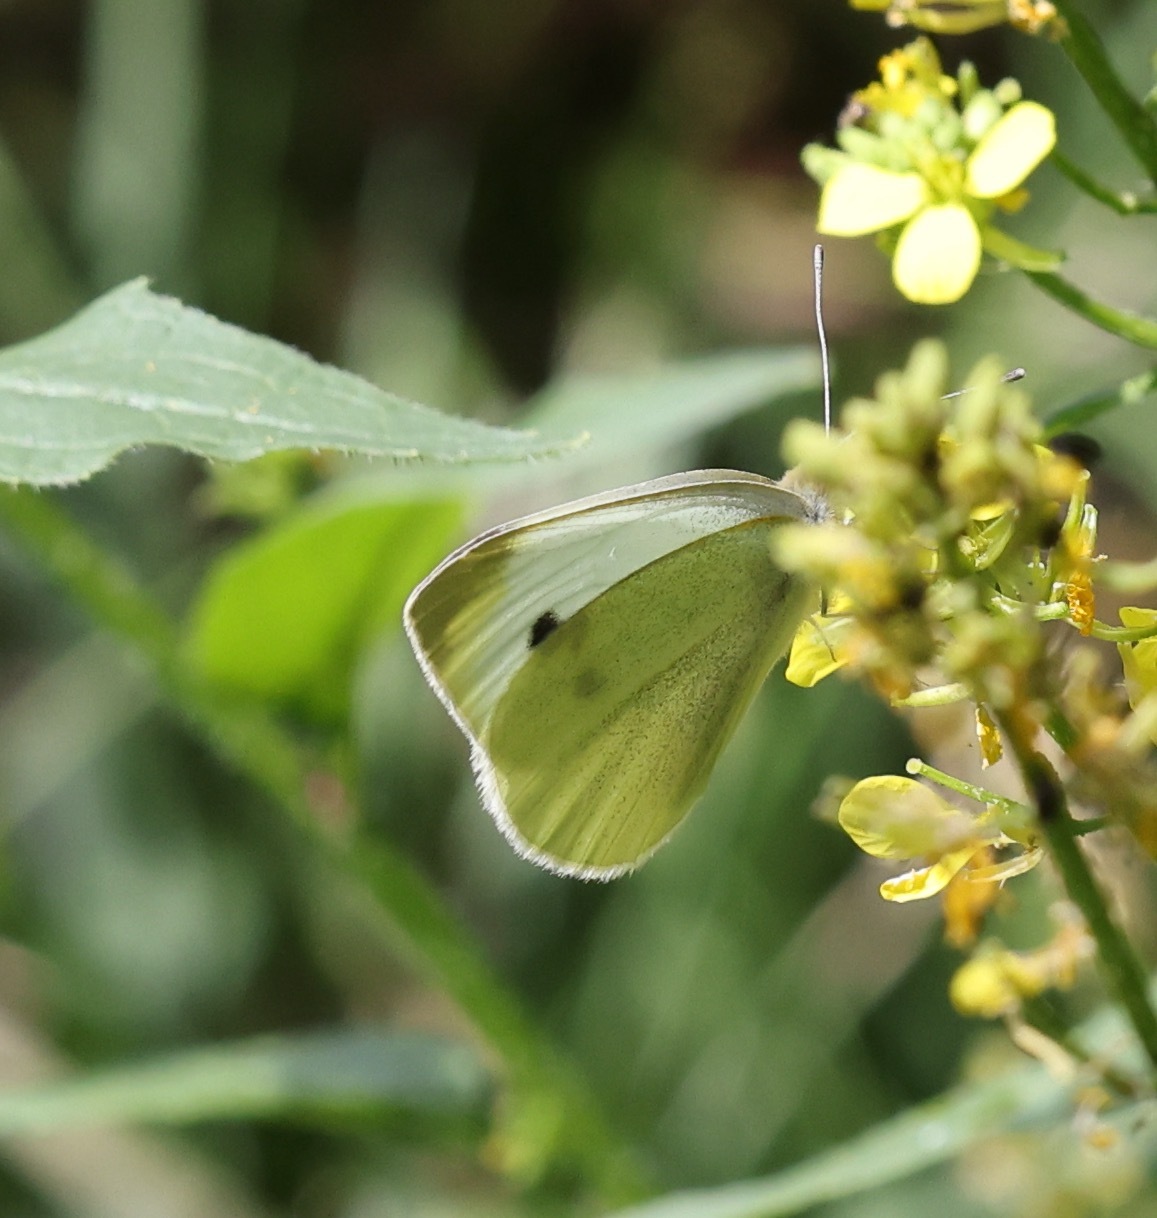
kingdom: Animalia
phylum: Arthropoda
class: Insecta
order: Lepidoptera
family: Pieridae
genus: Pieris
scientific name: Pieris rapae
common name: Small white
